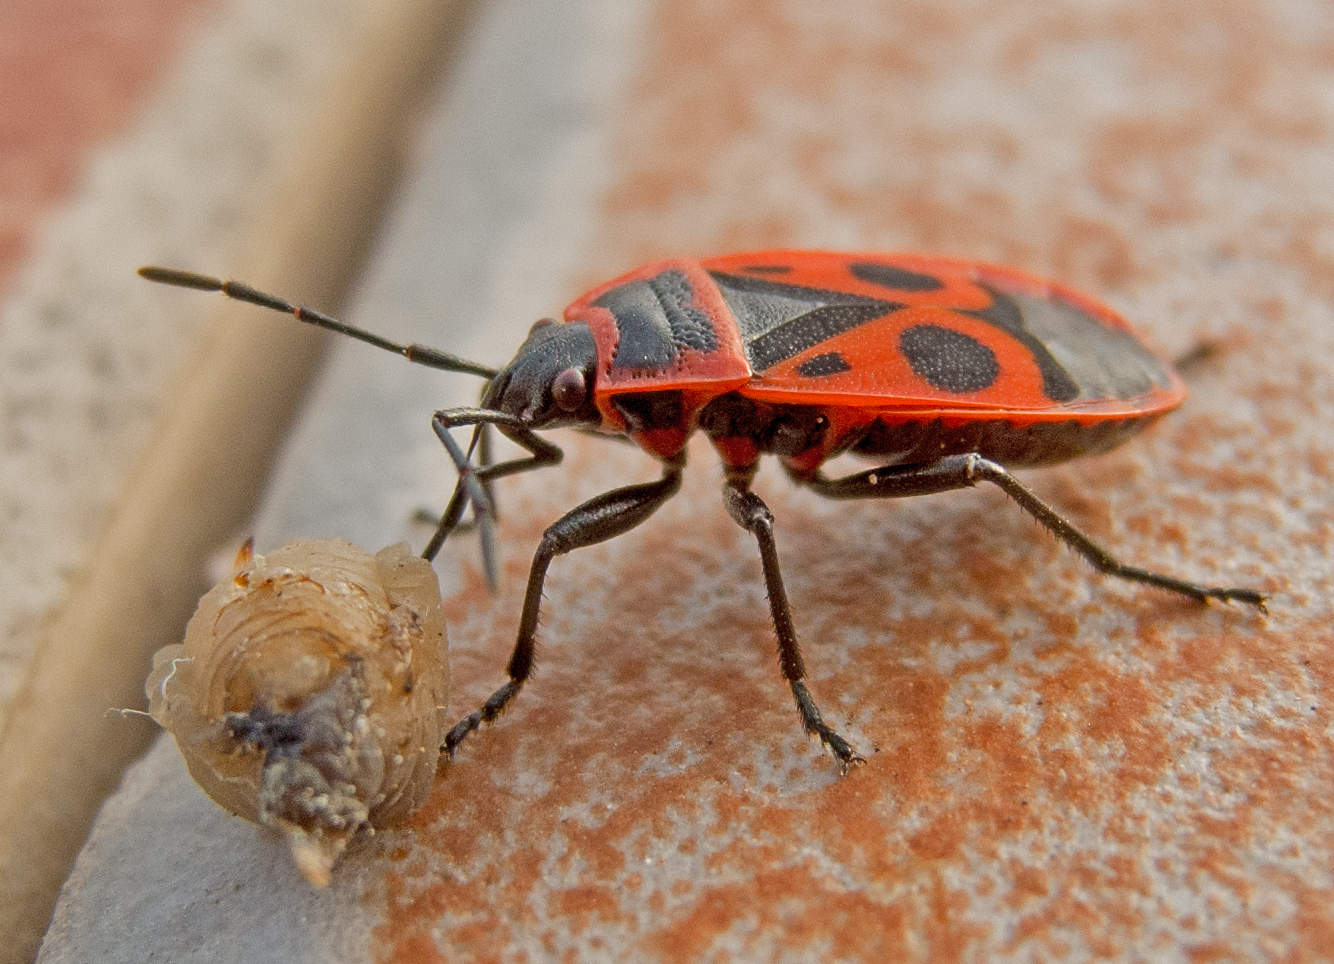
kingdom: Animalia
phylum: Arthropoda
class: Insecta
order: Hemiptera
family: Pyrrhocoridae
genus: Pyrrhocoris
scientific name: Pyrrhocoris apterus
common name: Firebug
